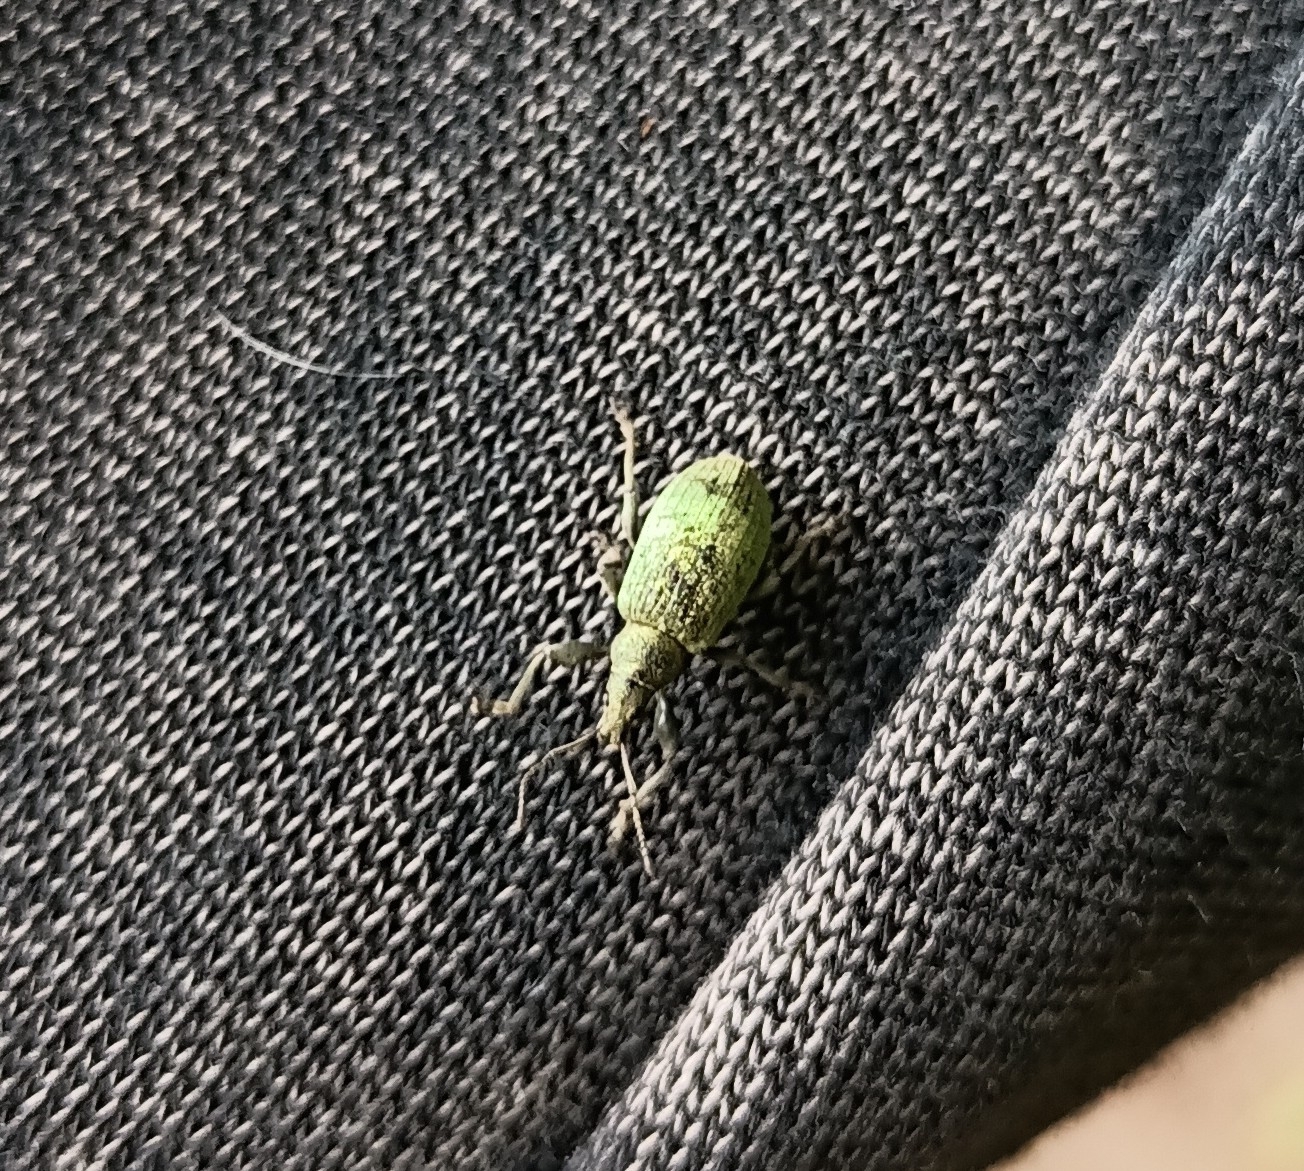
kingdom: Animalia
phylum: Arthropoda
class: Insecta
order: Coleoptera
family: Curculionidae
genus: Phyllobius
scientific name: Phyllobius pomaceus
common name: Green nettle weevil
